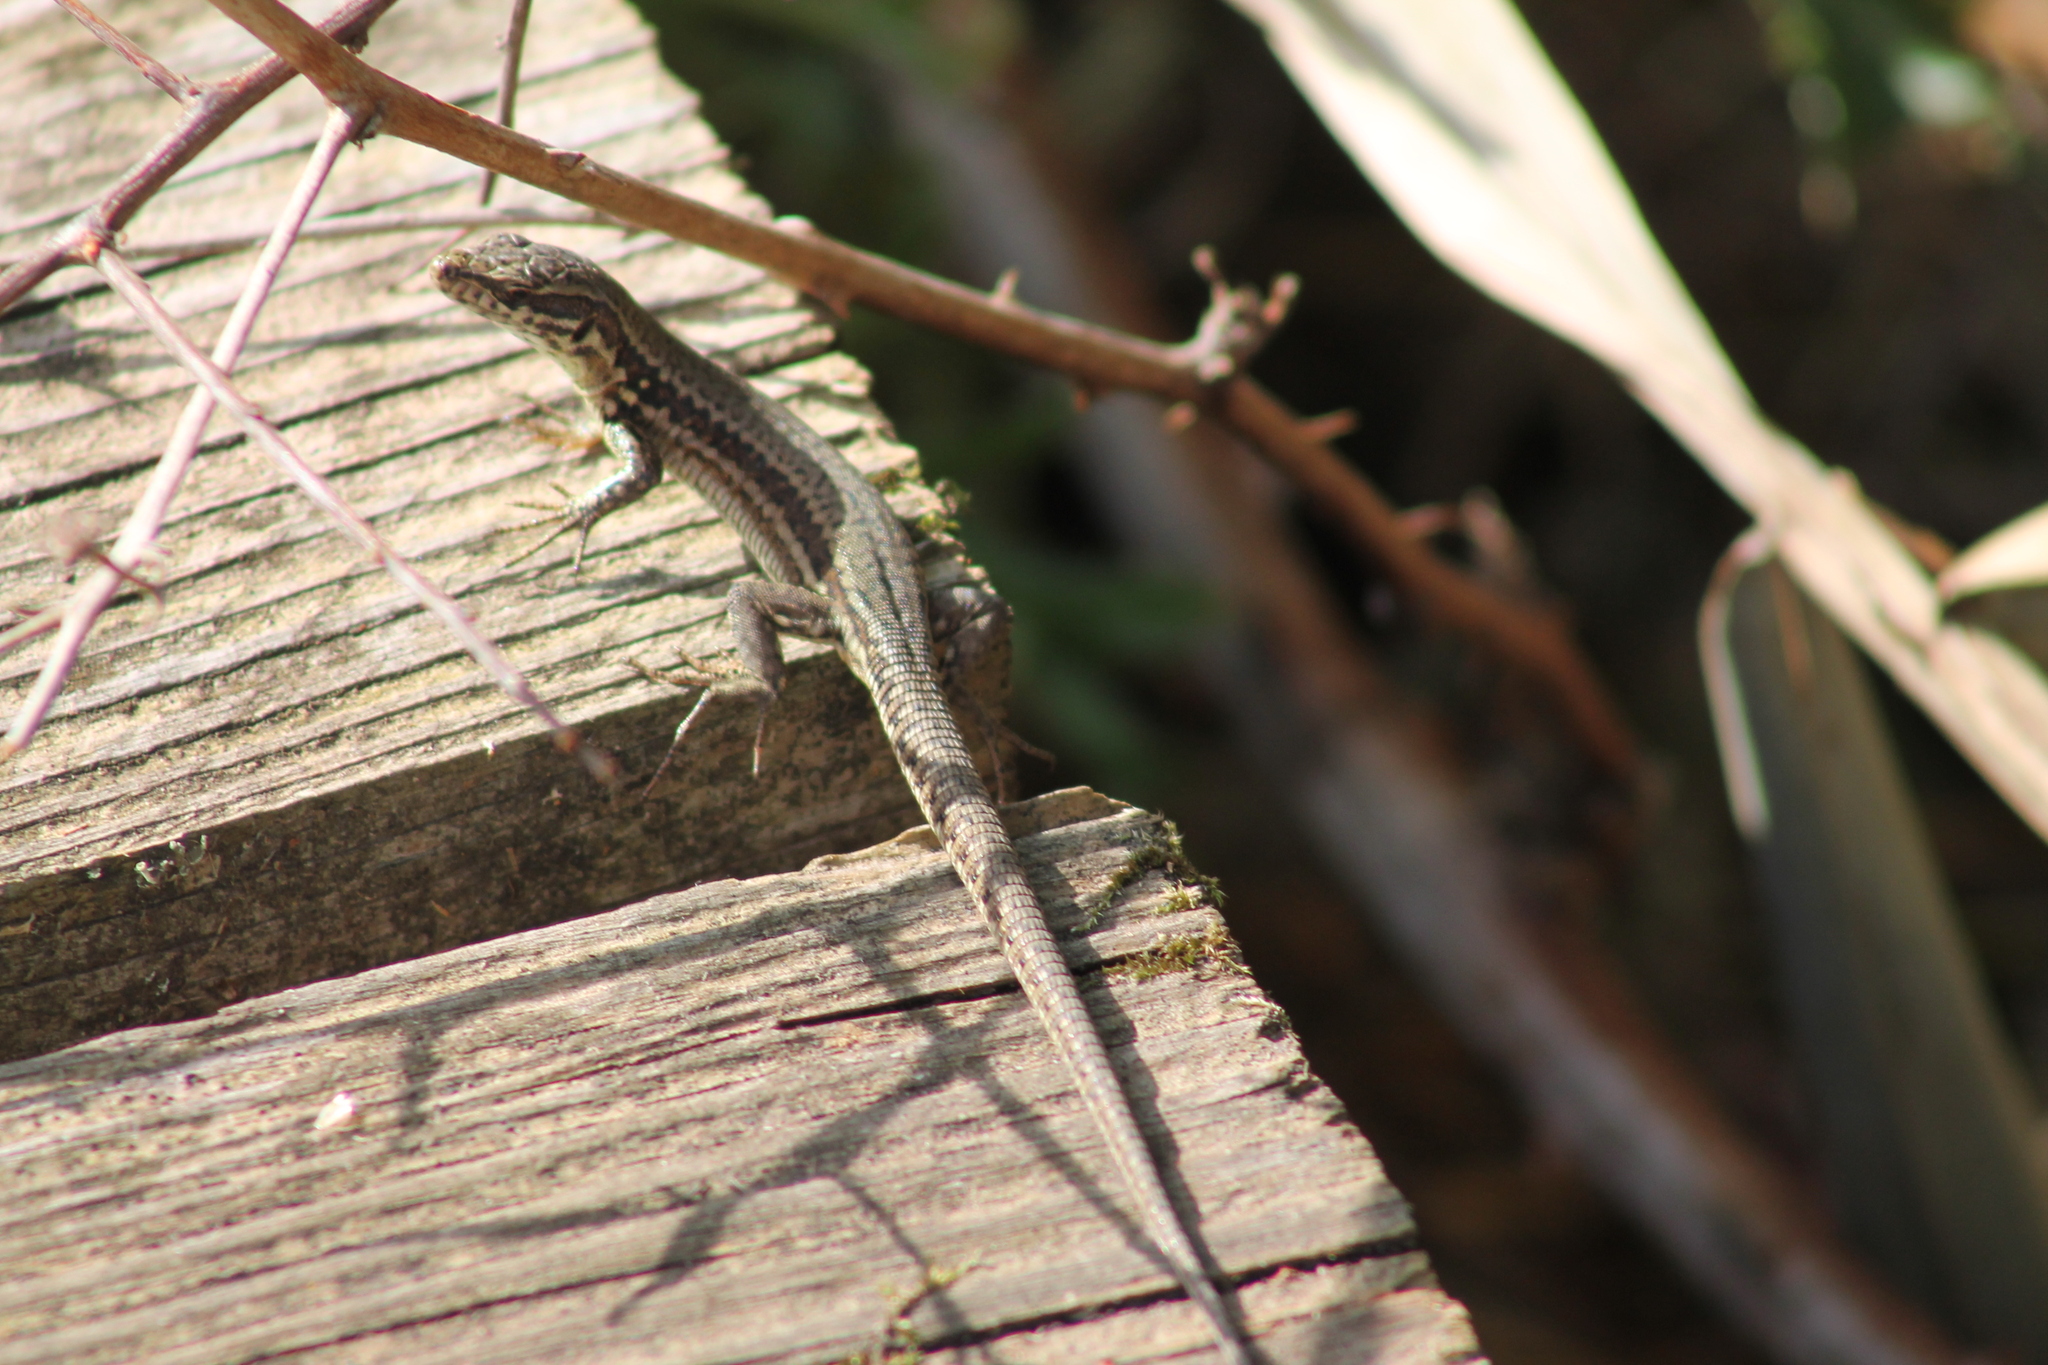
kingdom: Animalia
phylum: Chordata
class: Squamata
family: Lacertidae
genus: Podarcis
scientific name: Podarcis muralis
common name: Common wall lizard
